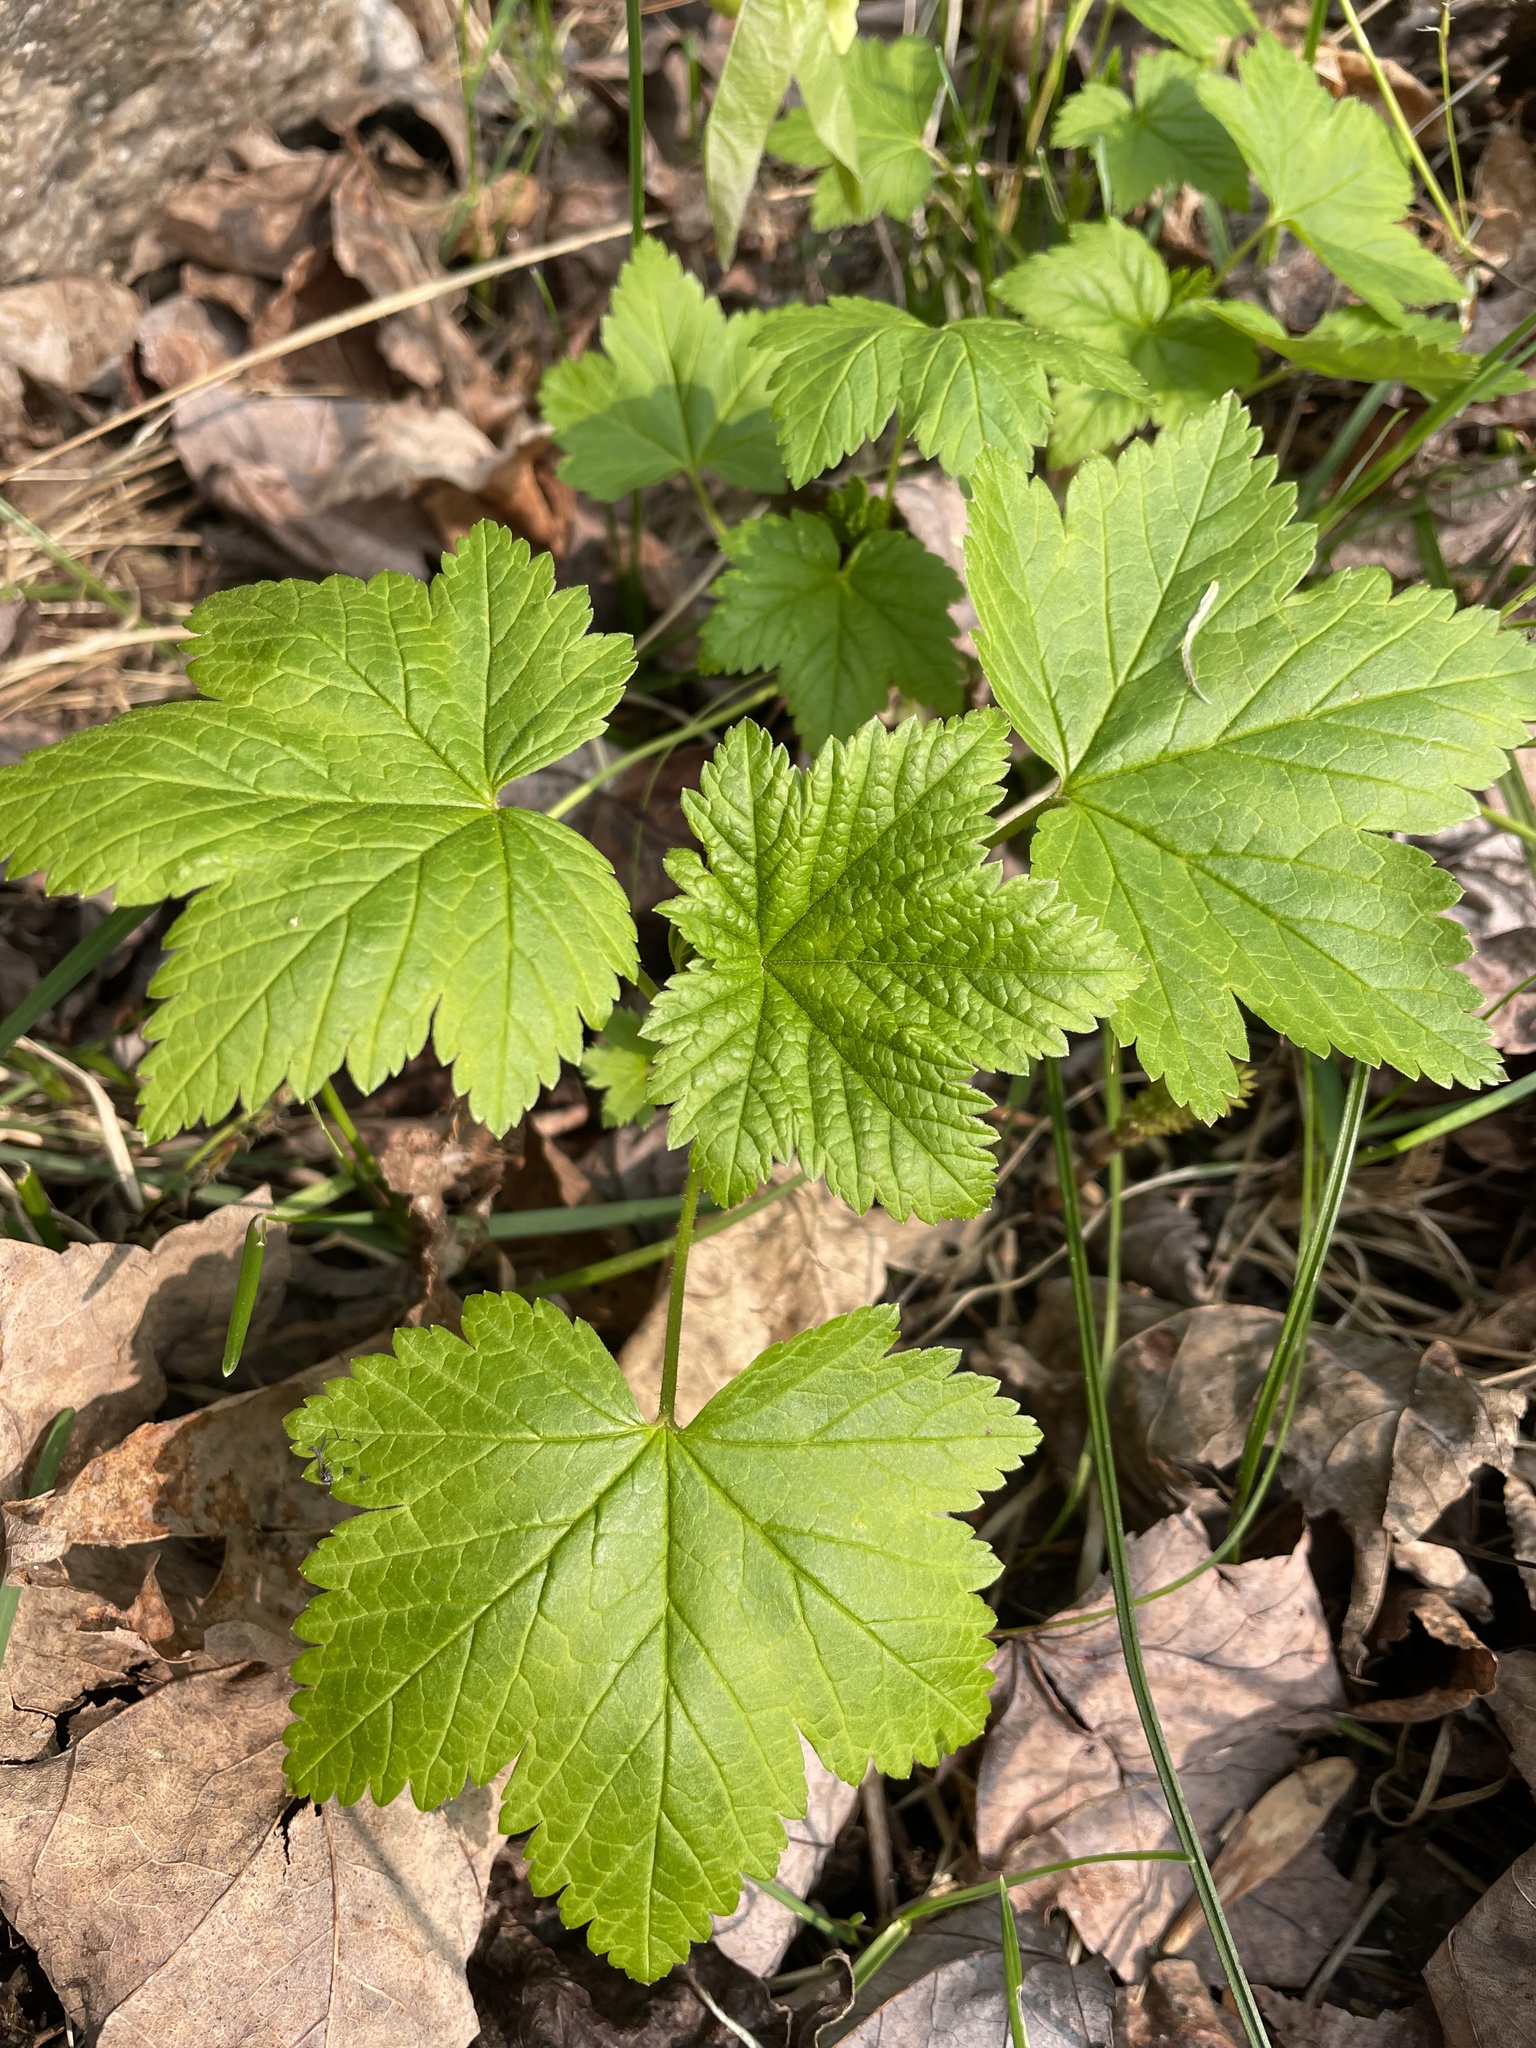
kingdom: Plantae
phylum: Tracheophyta
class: Magnoliopsida
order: Saxifragales
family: Grossulariaceae
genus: Ribes
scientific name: Ribes glandulosum
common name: Skunk currant
